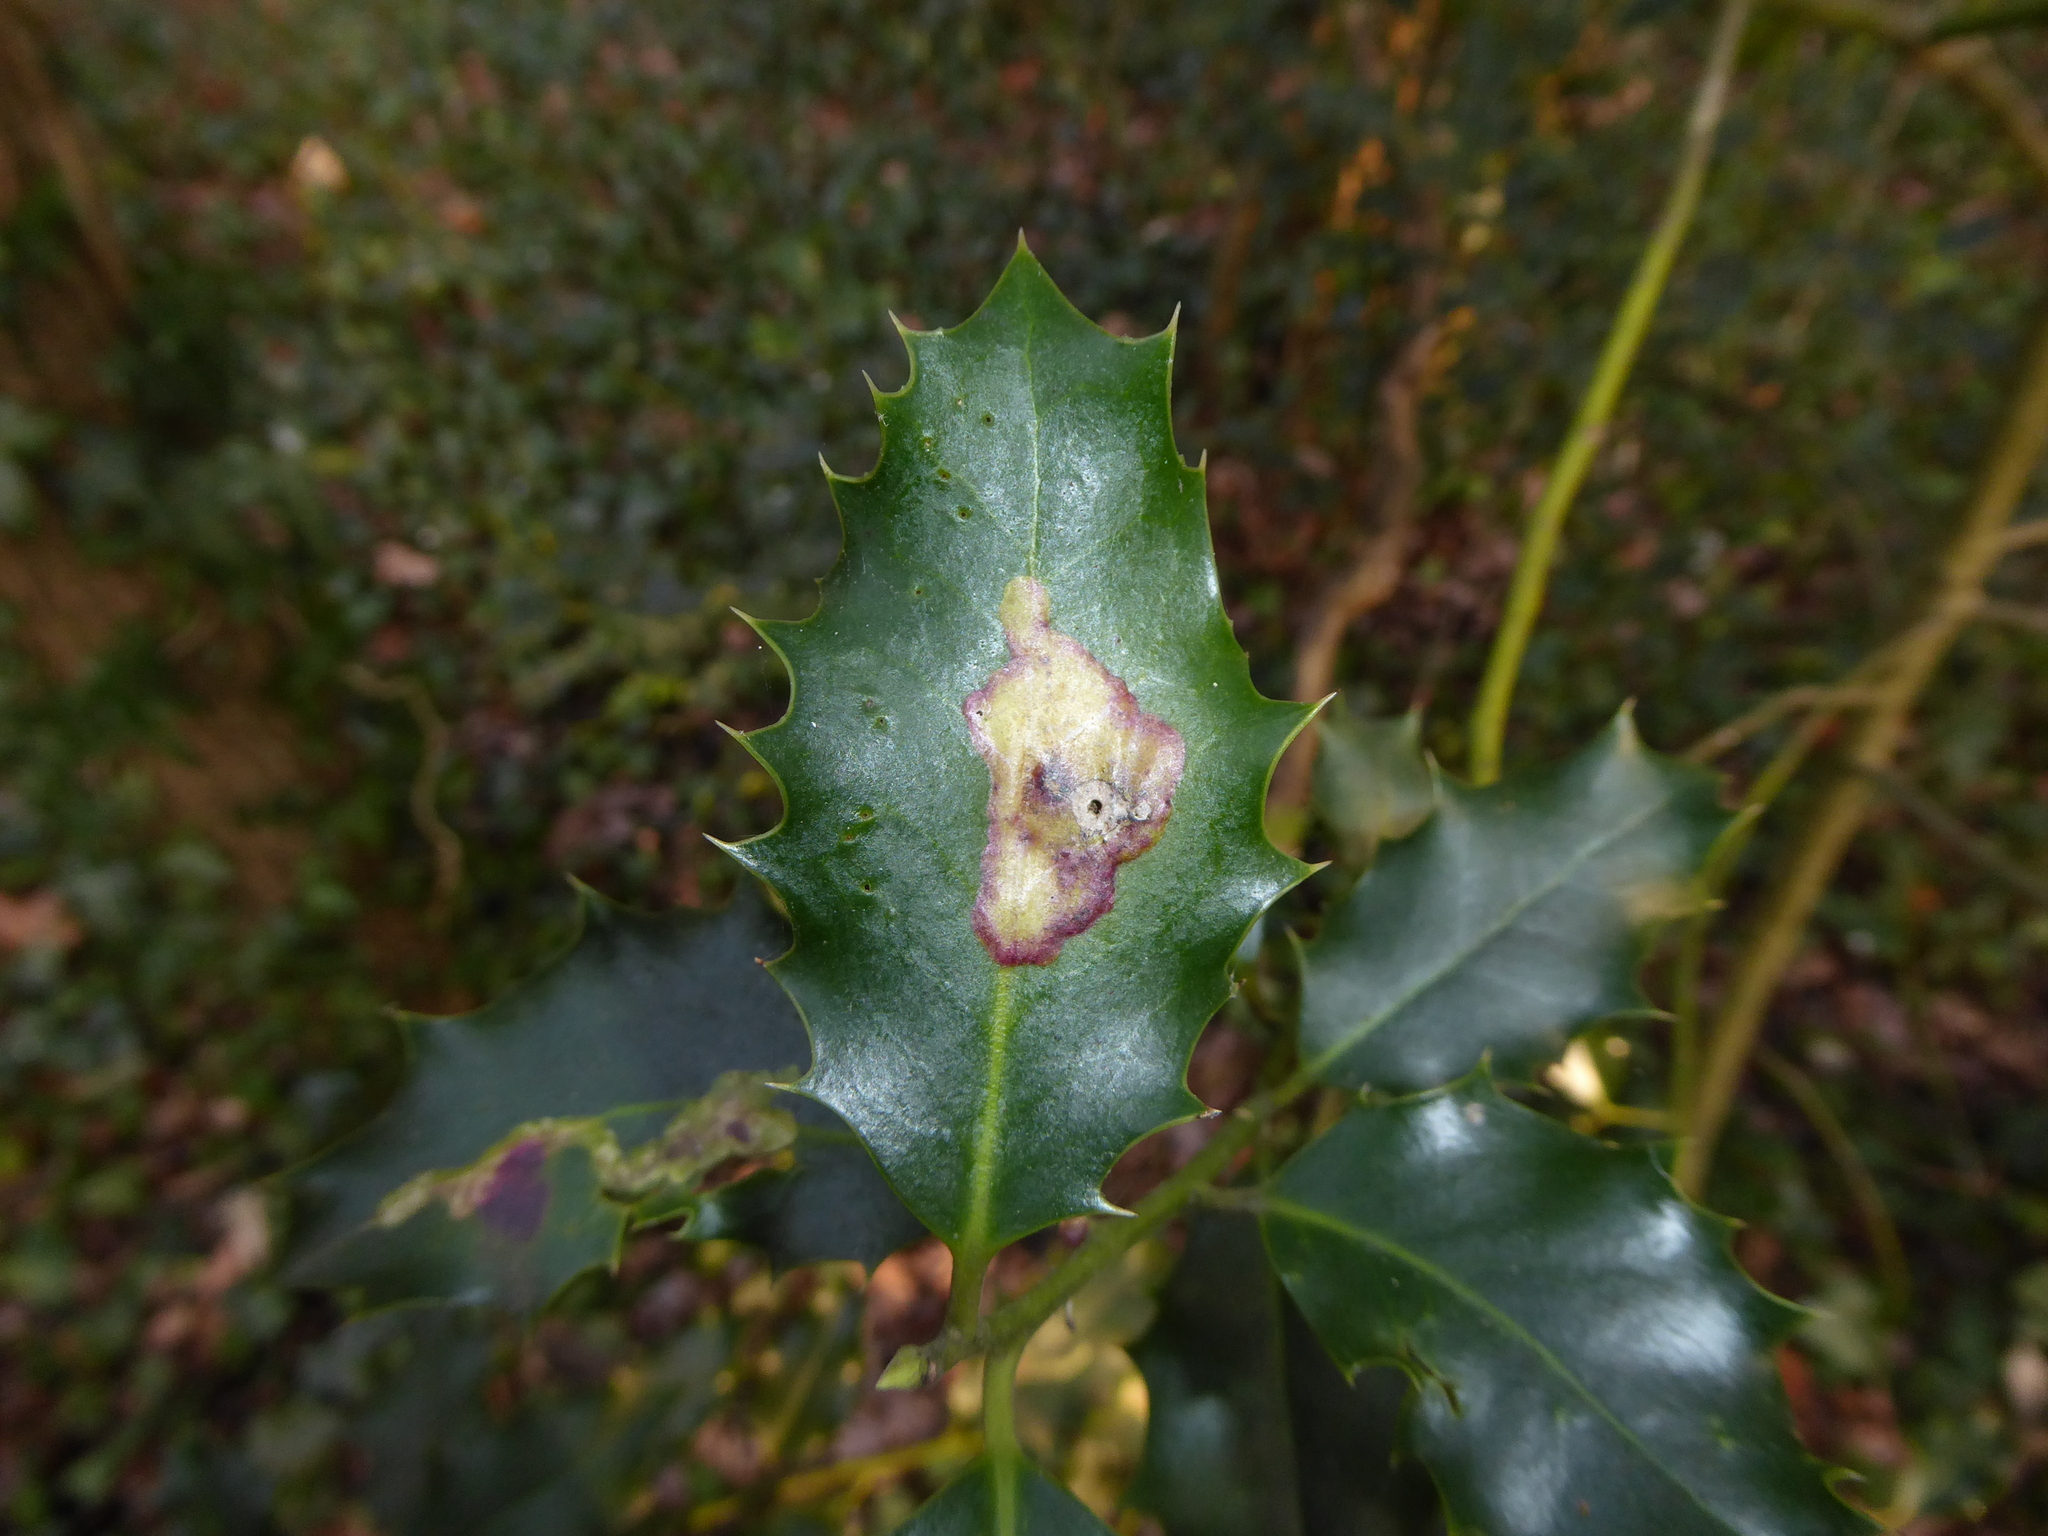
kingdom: Animalia
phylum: Arthropoda
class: Insecta
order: Diptera
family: Agromyzidae
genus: Phytomyza
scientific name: Phytomyza ilicis
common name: Holly leafminer
